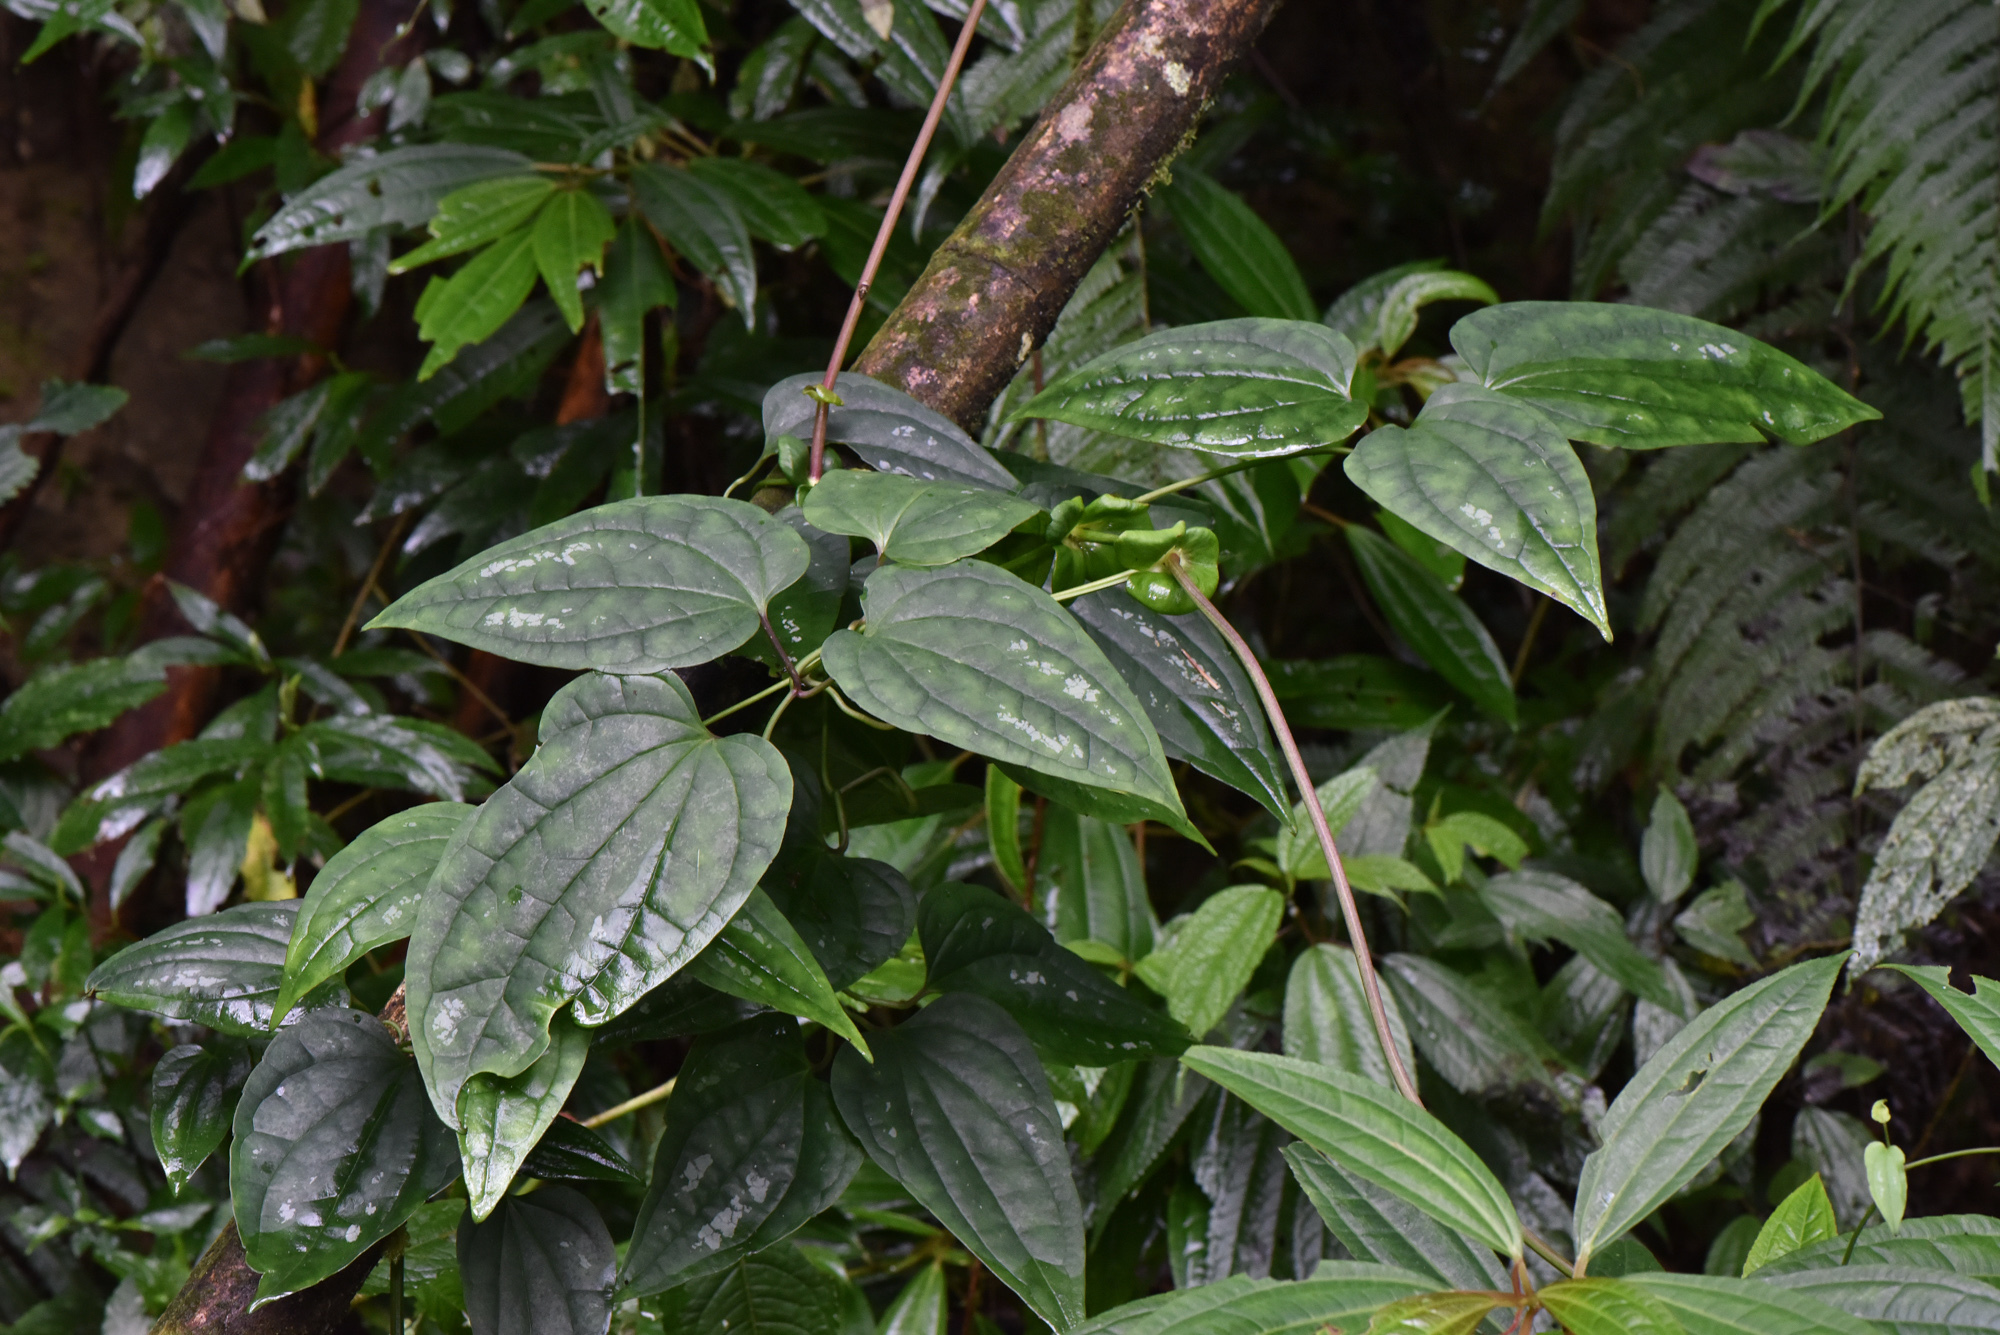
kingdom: Plantae
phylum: Tracheophyta
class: Magnoliopsida
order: Ranunculales
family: Ranunculaceae
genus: Clematis
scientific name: Clematis tashiroi
